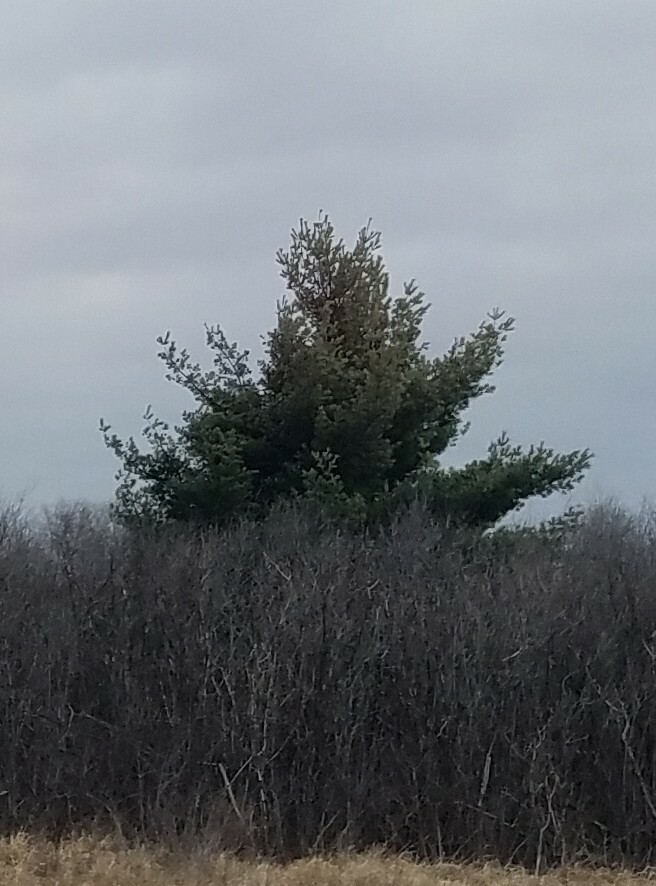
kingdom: Plantae
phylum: Tracheophyta
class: Pinopsida
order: Pinales
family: Pinaceae
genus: Pinus
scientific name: Pinus strobus
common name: Weymouth pine
